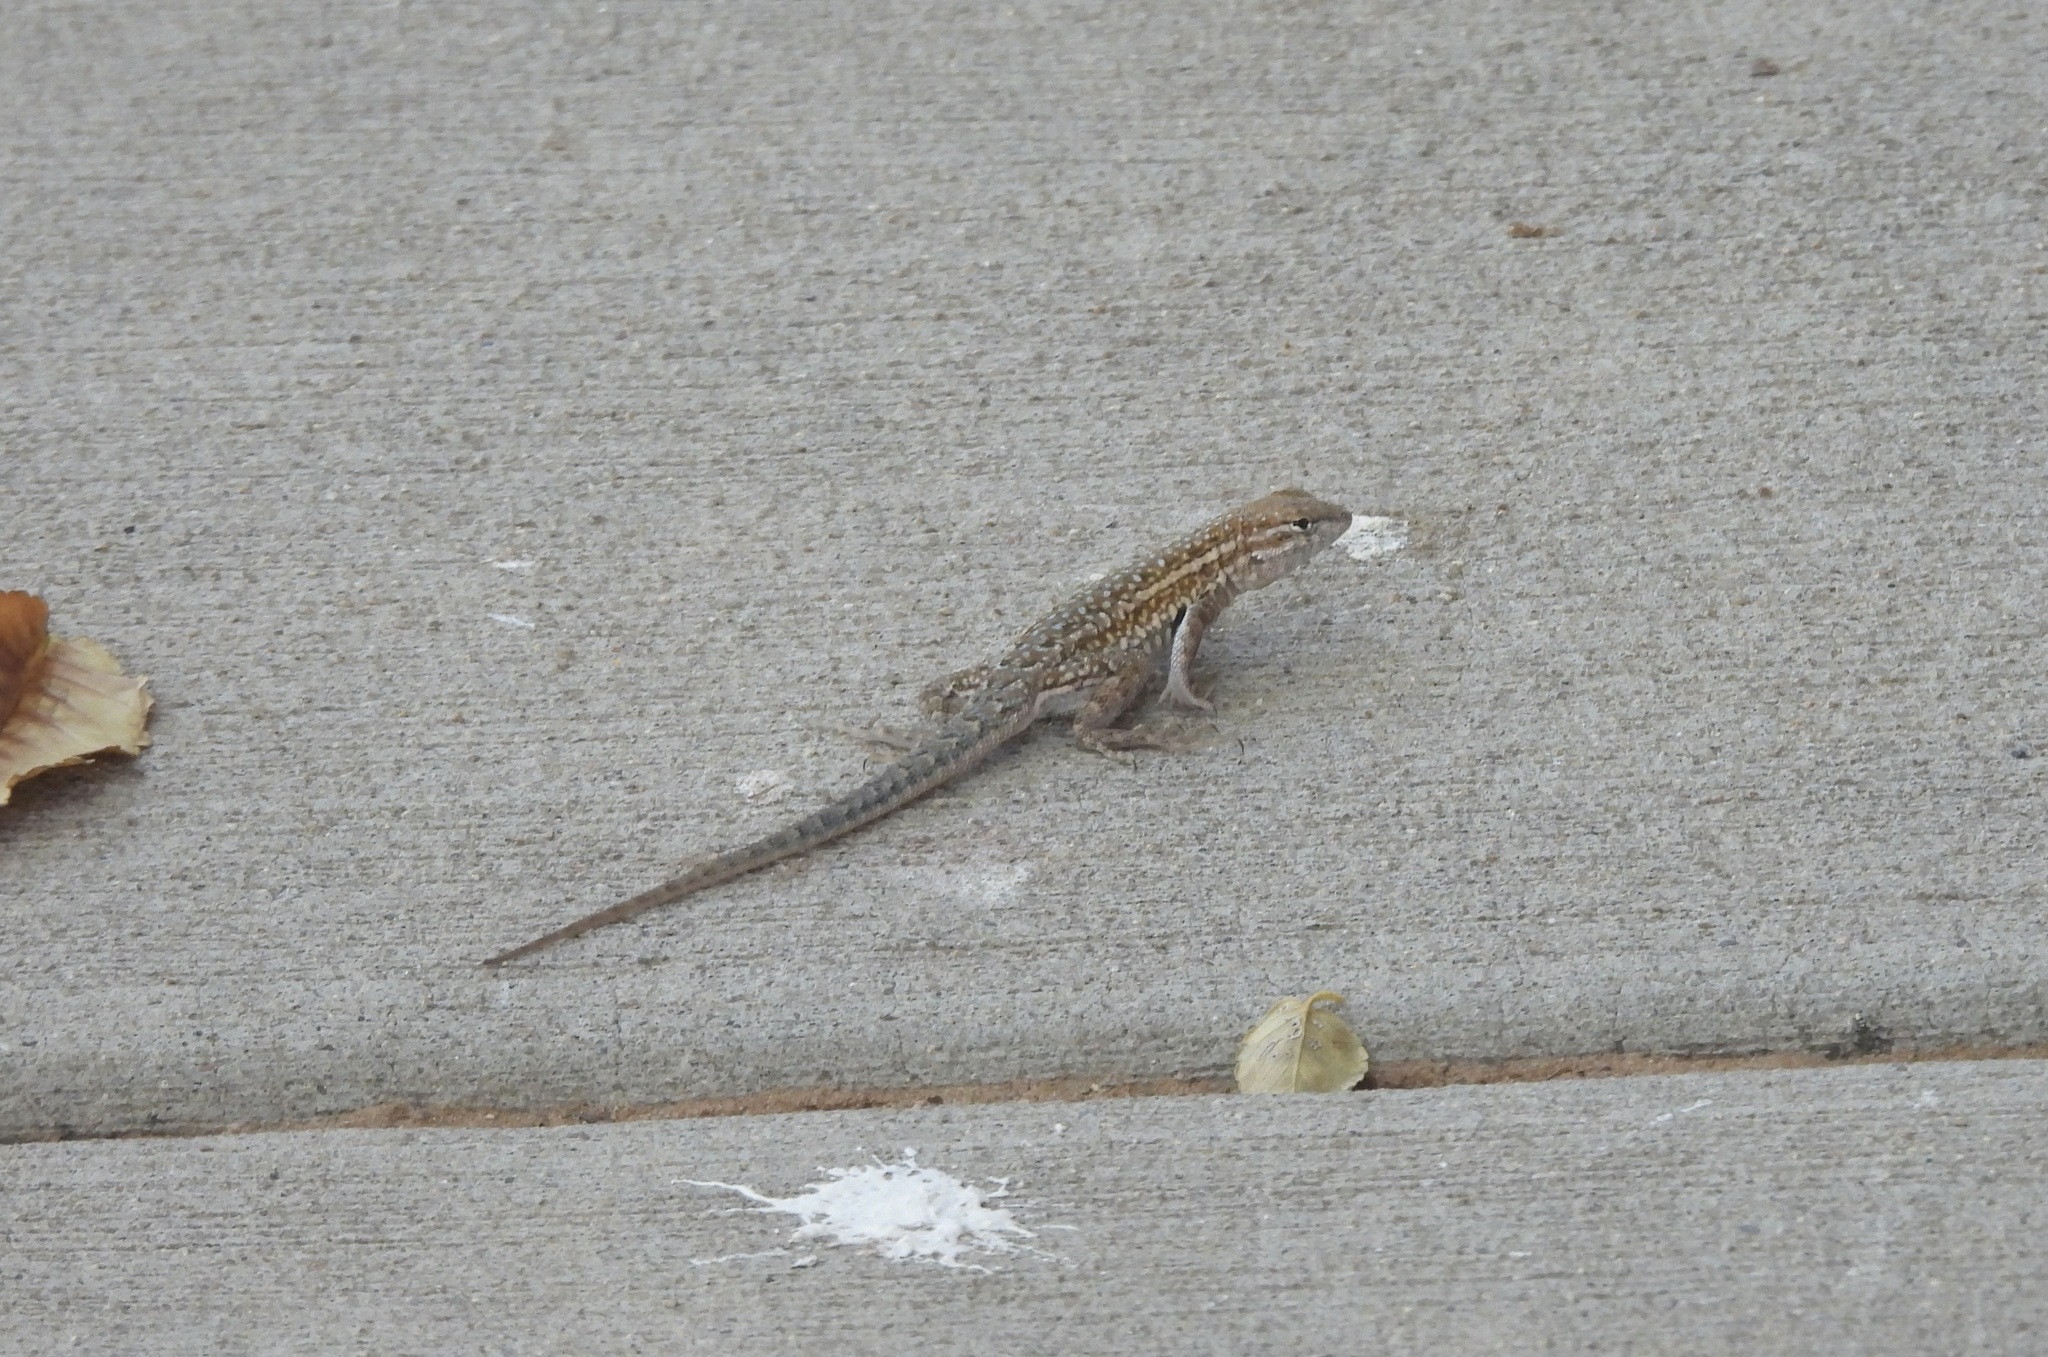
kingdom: Animalia
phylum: Chordata
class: Squamata
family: Phrynosomatidae
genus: Uta
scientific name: Uta stansburiana
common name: Side-blotched lizard
